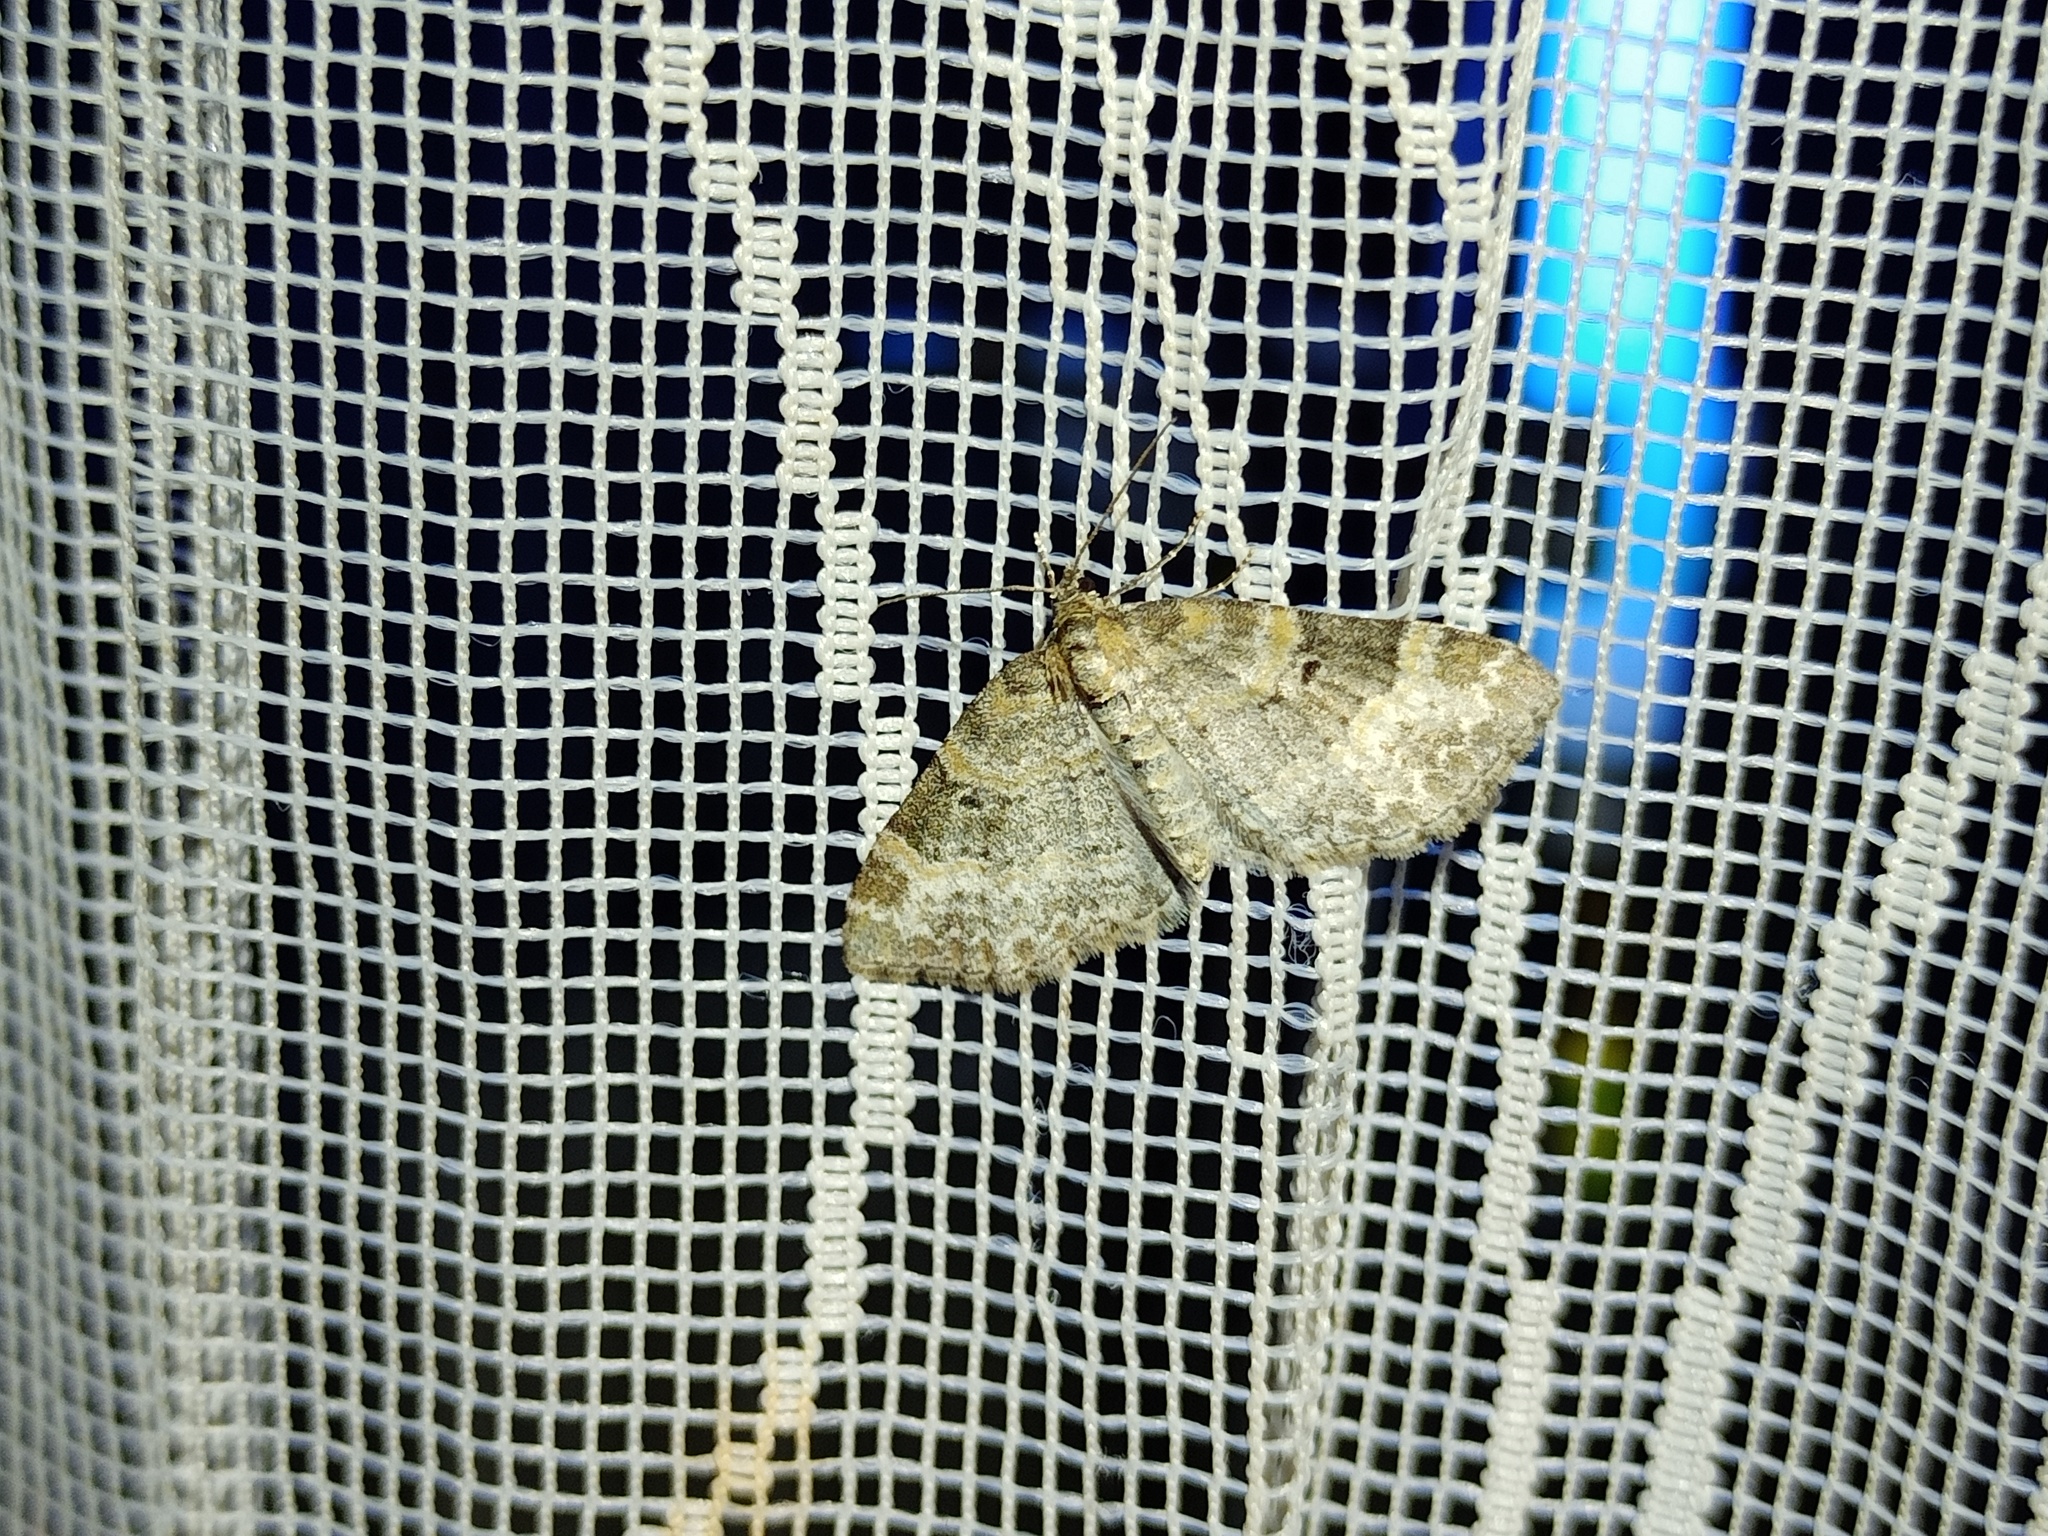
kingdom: Animalia
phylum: Arthropoda
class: Insecta
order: Lepidoptera
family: Geometridae
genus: Pterapherapteryx
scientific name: Pterapherapteryx sexalata
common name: Small seraphim
